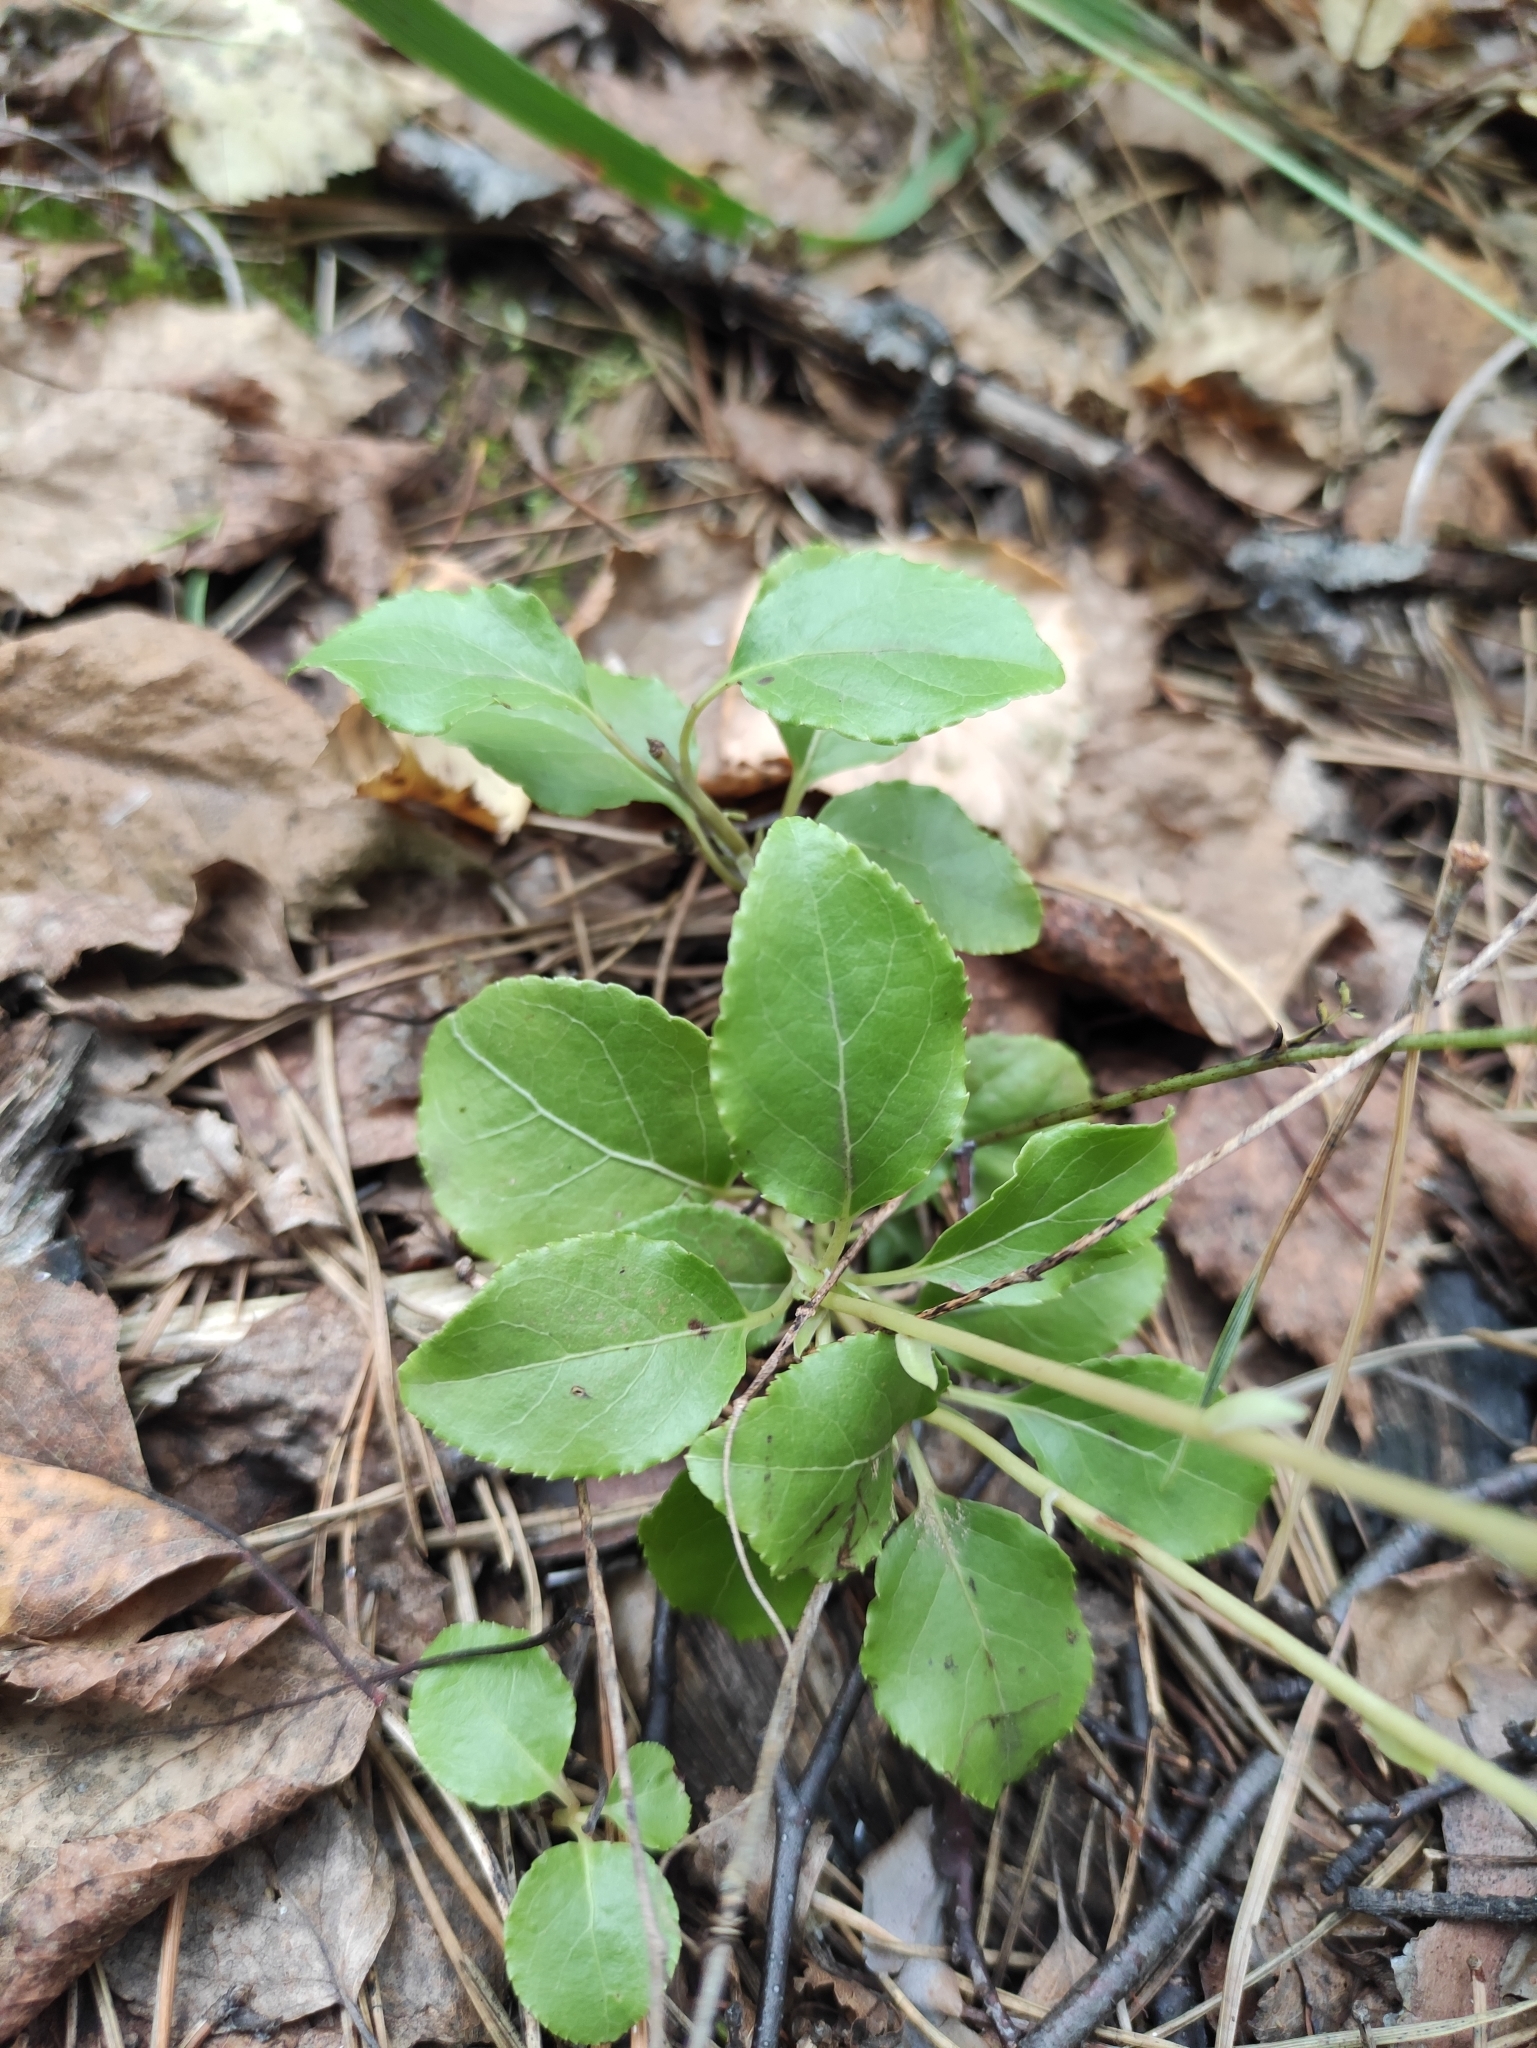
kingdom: Plantae
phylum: Tracheophyta
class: Magnoliopsida
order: Ericales
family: Ericaceae
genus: Orthilia
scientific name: Orthilia secunda
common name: One-sided orthilia
